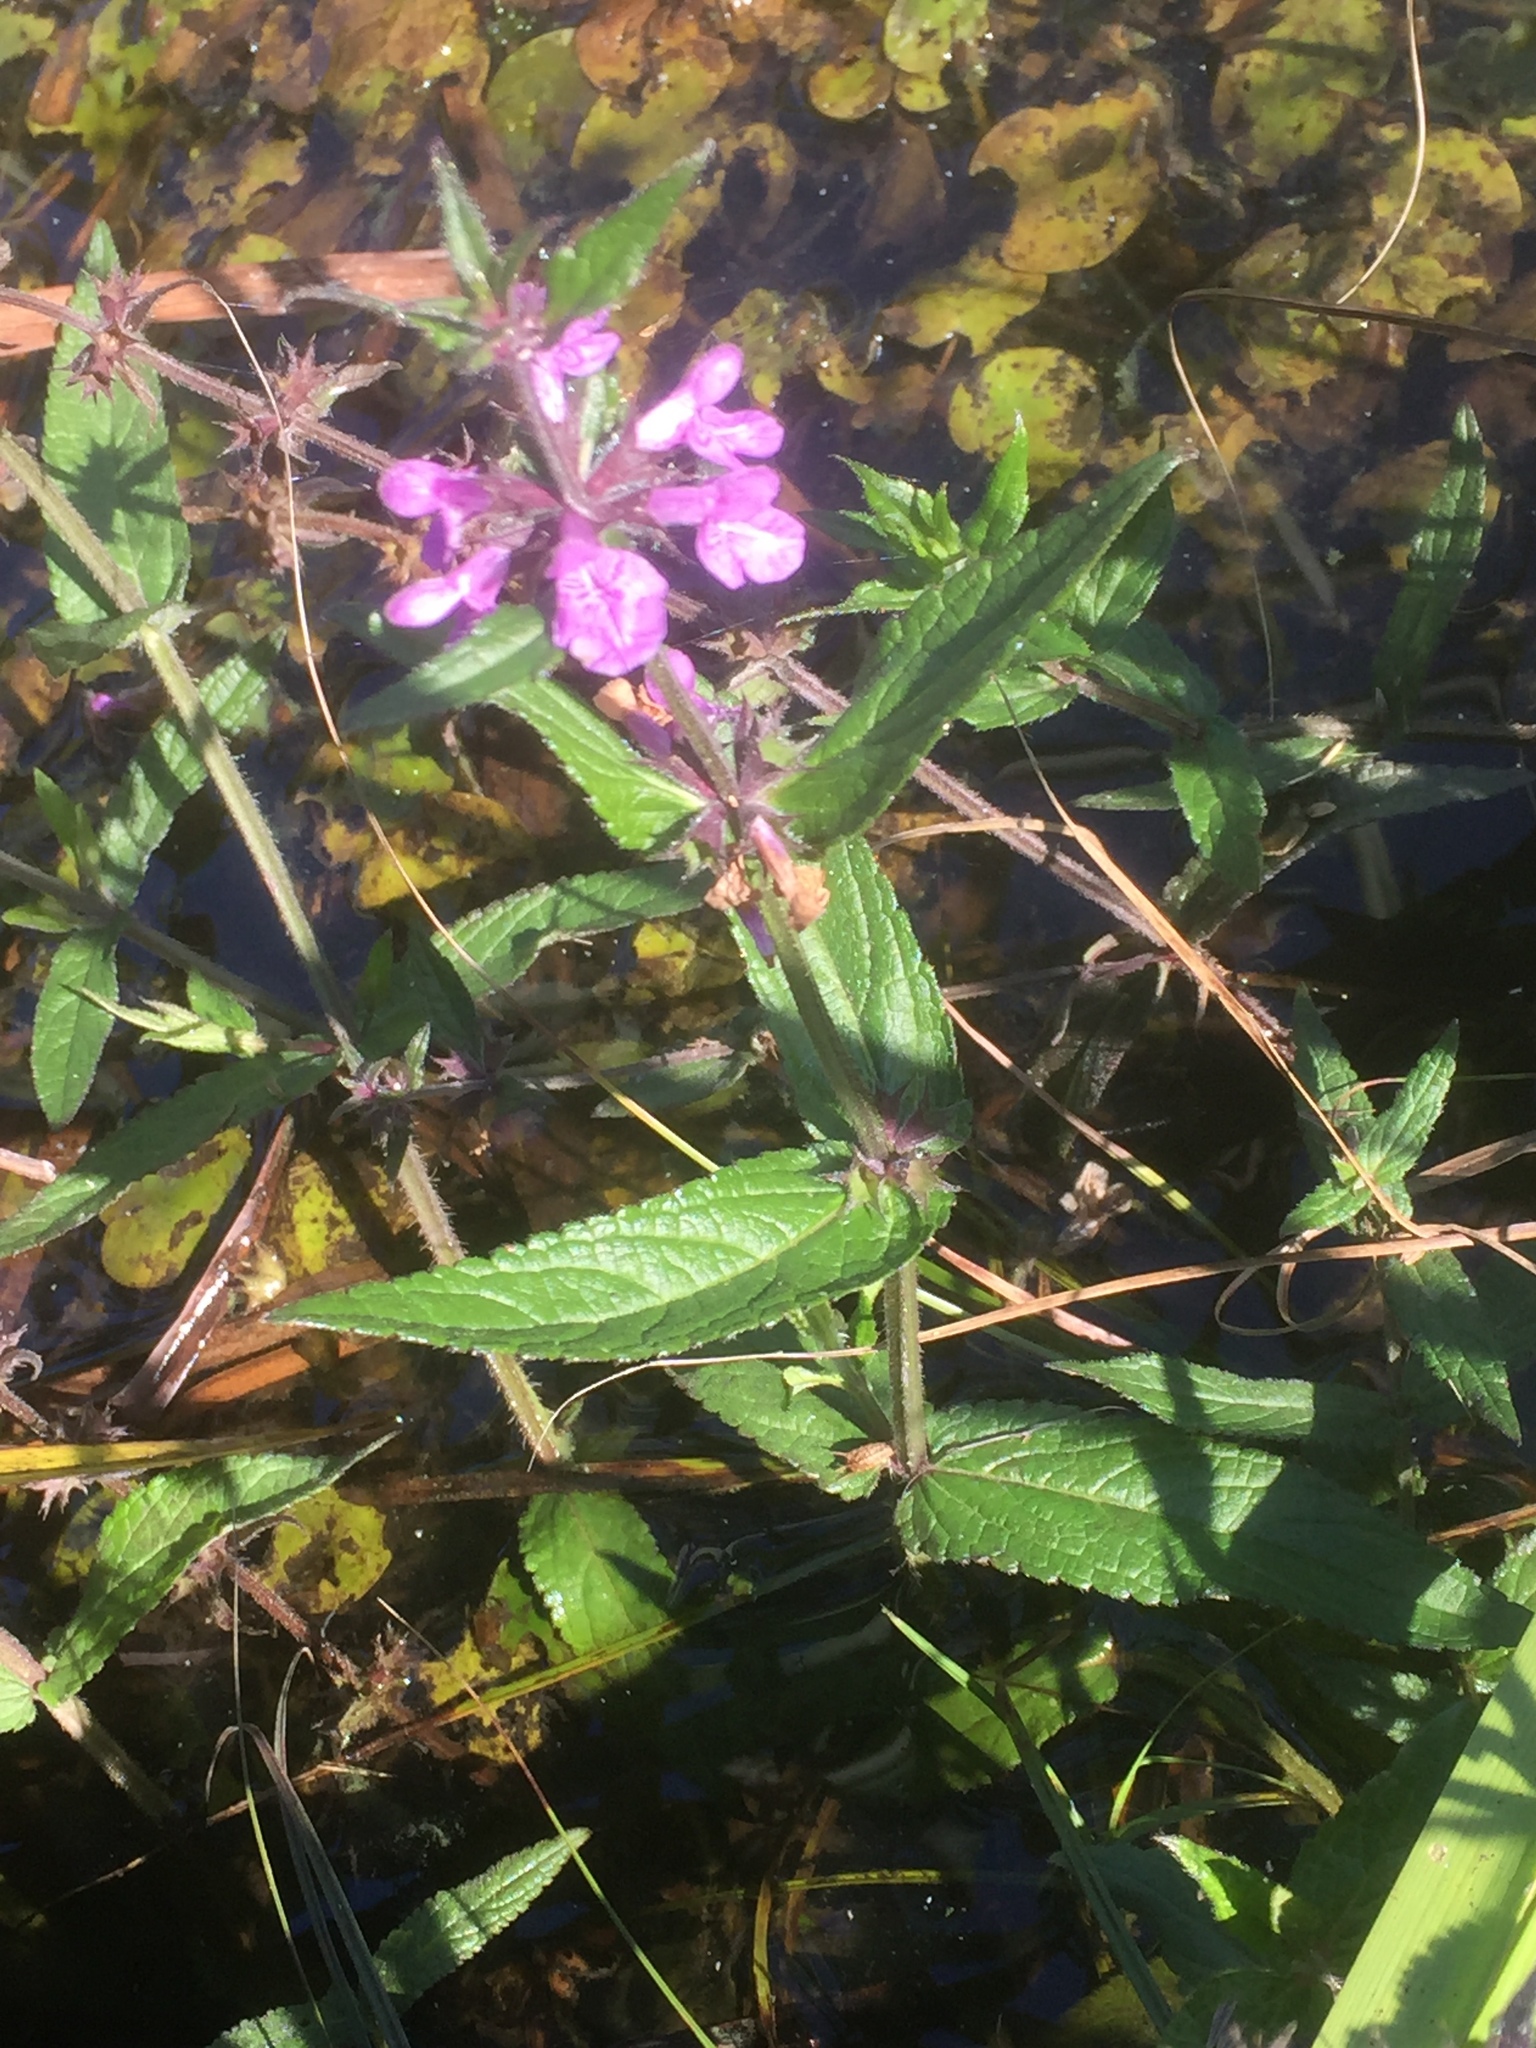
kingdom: Plantae
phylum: Tracheophyta
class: Magnoliopsida
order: Lamiales
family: Lamiaceae
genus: Stachys
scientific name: Stachys palustris
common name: Marsh woundwort
